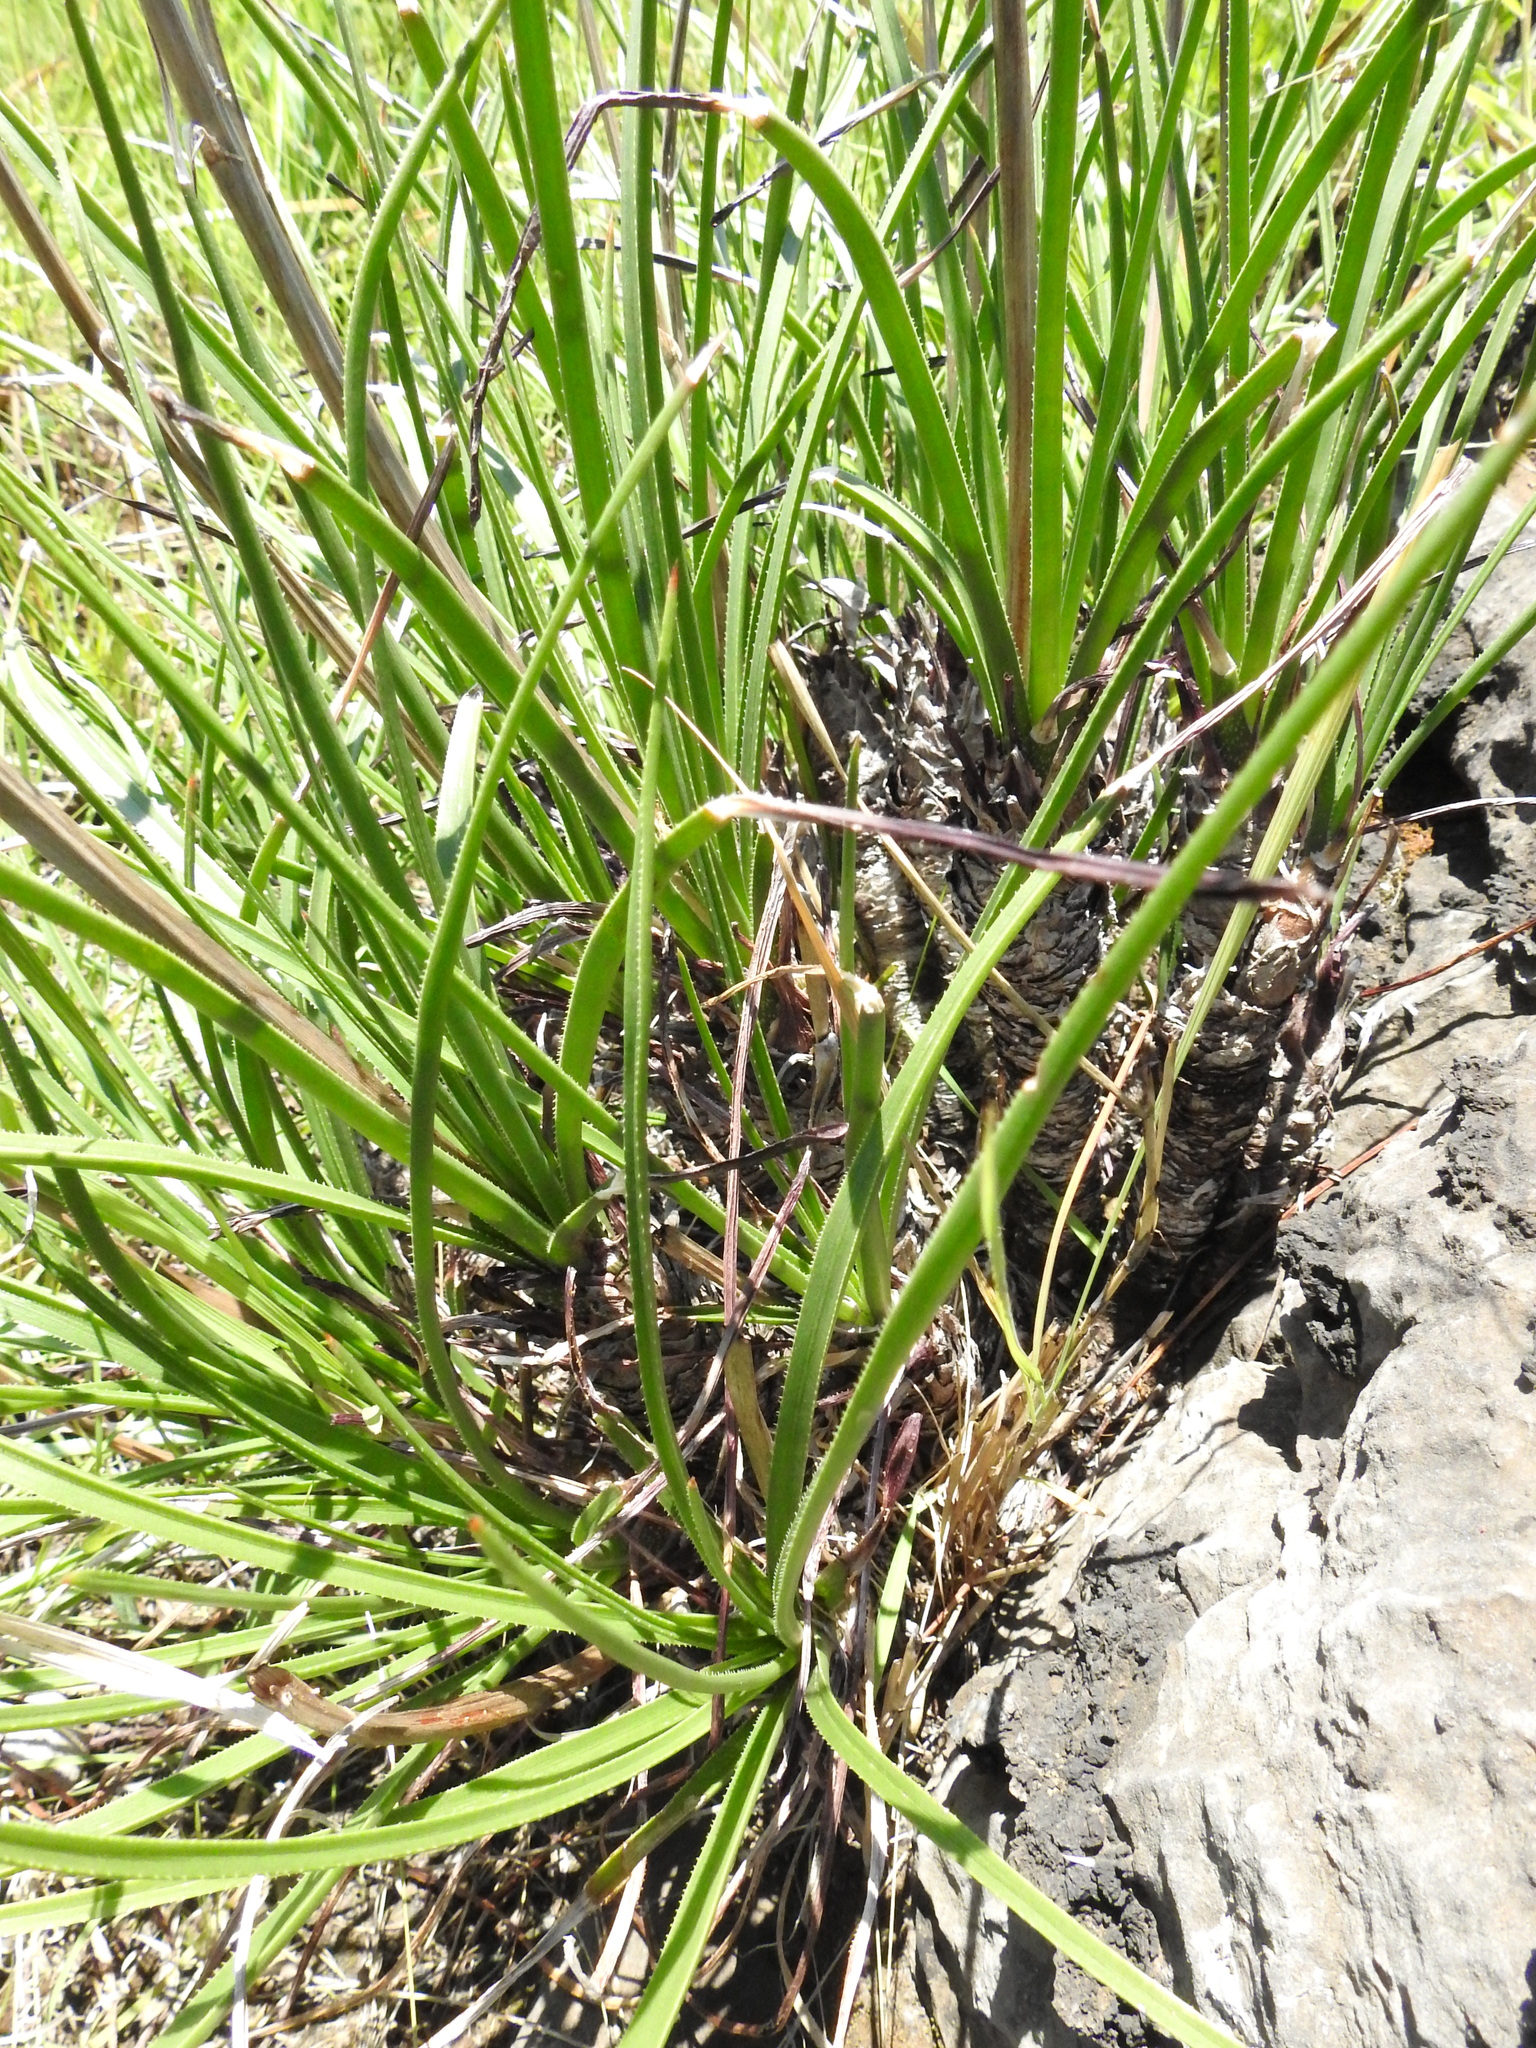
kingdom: Plantae
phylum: Tracheophyta
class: Liliopsida
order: Asparagales
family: Asphodelaceae
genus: Aloe
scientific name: Aloe chortolirioides
